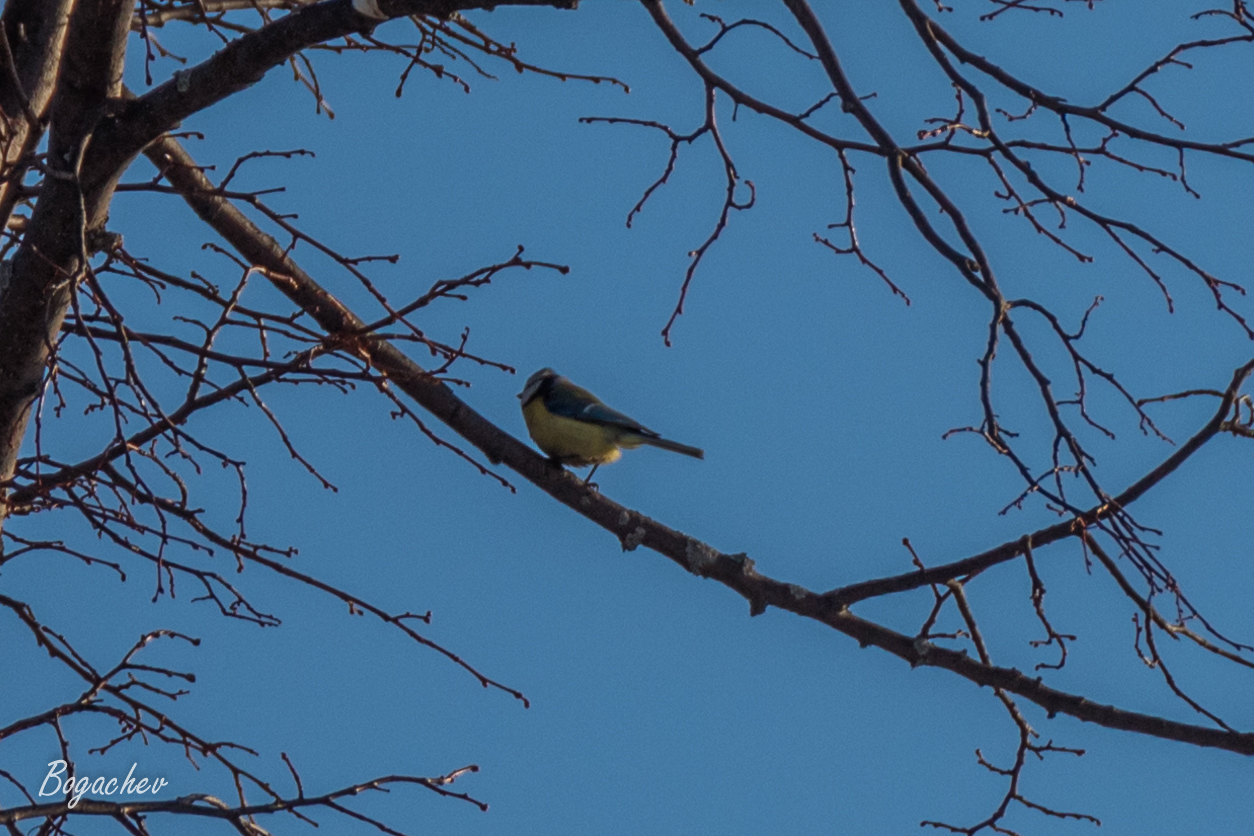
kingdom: Animalia
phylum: Chordata
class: Aves
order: Passeriformes
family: Paridae
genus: Cyanistes
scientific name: Cyanistes caeruleus
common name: Eurasian blue tit
